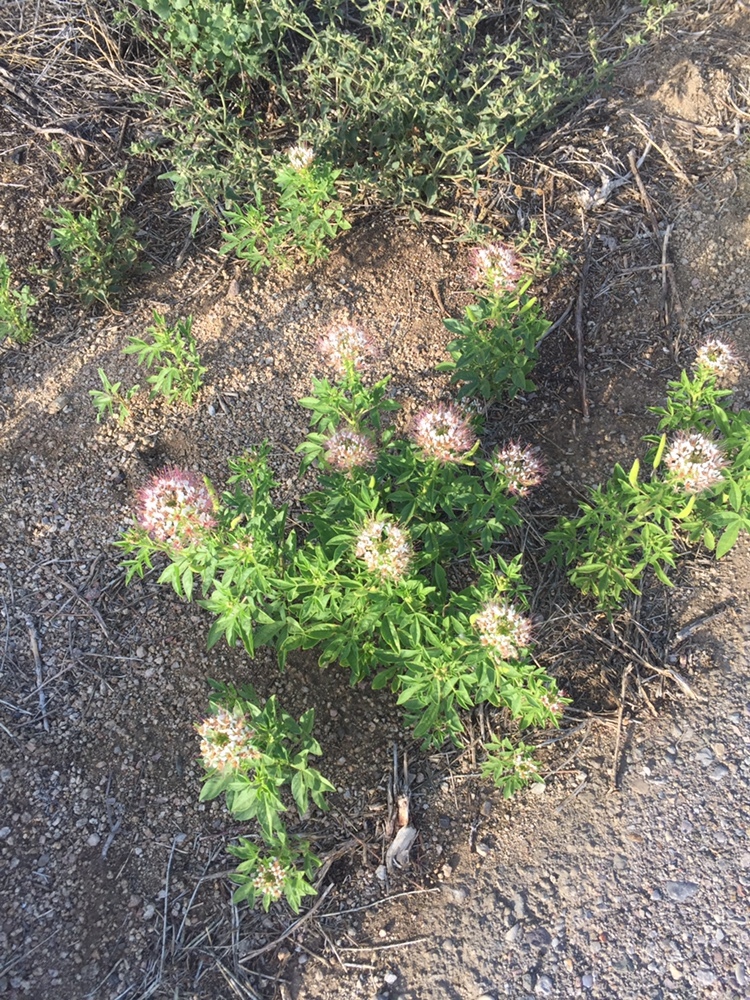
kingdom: Plantae
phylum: Tracheophyta
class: Magnoliopsida
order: Brassicales
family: Cleomaceae
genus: Polanisia
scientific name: Polanisia dodecandra
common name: Clammyweed
